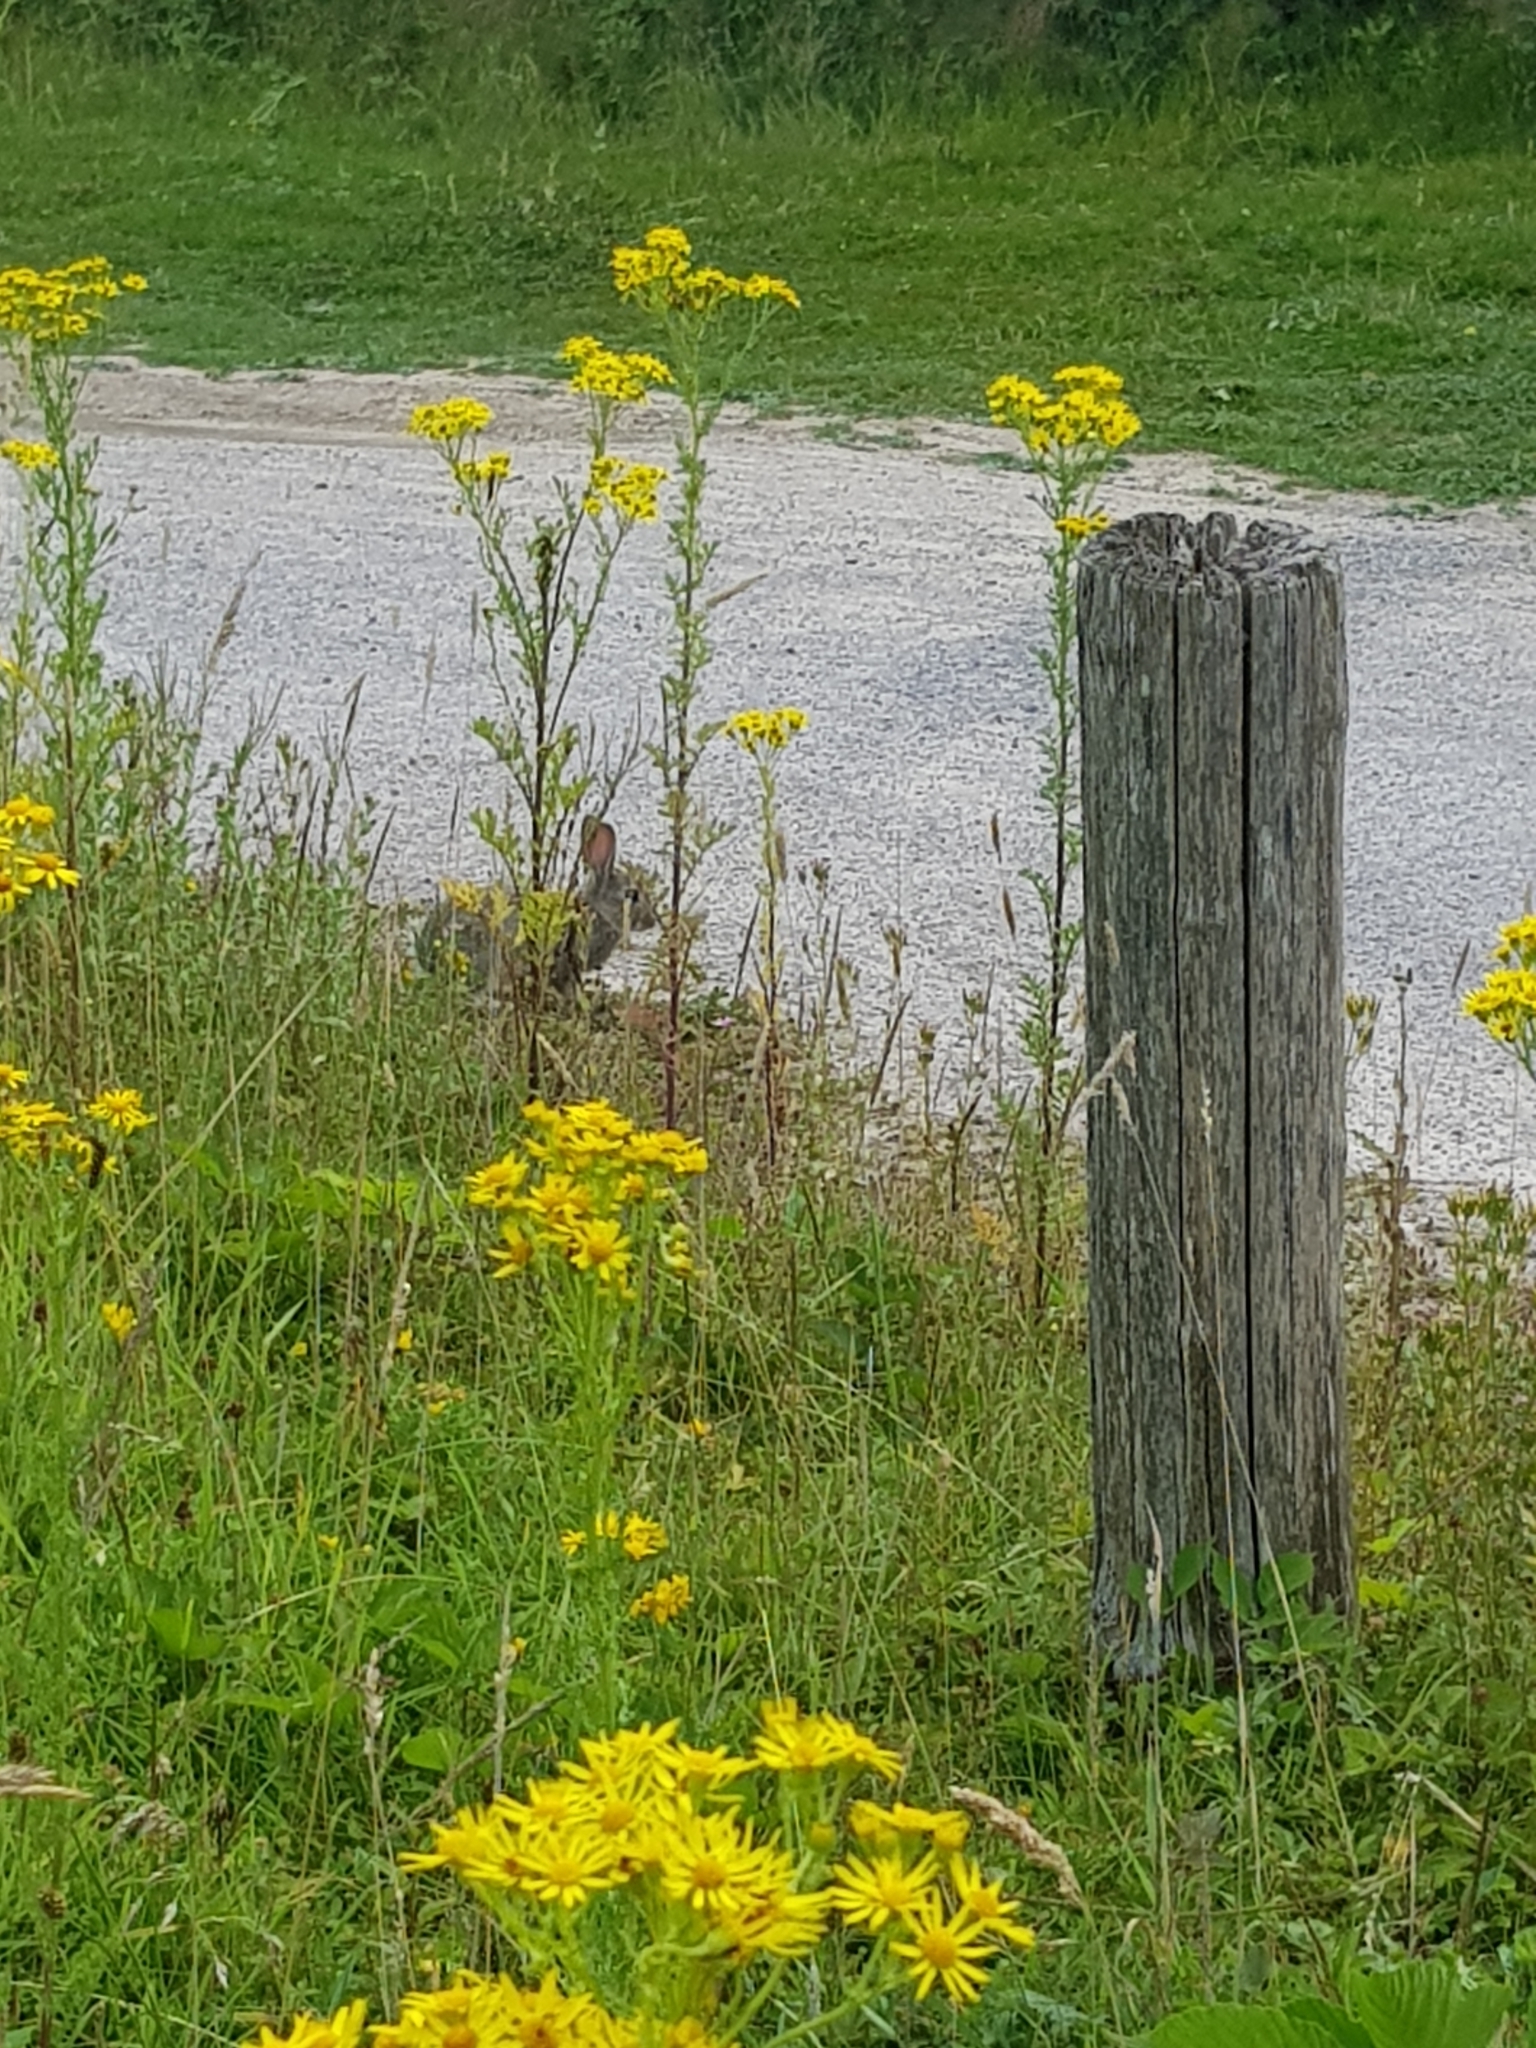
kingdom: Animalia
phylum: Chordata
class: Mammalia
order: Lagomorpha
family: Leporidae
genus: Oryctolagus
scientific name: Oryctolagus cuniculus
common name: European rabbit
